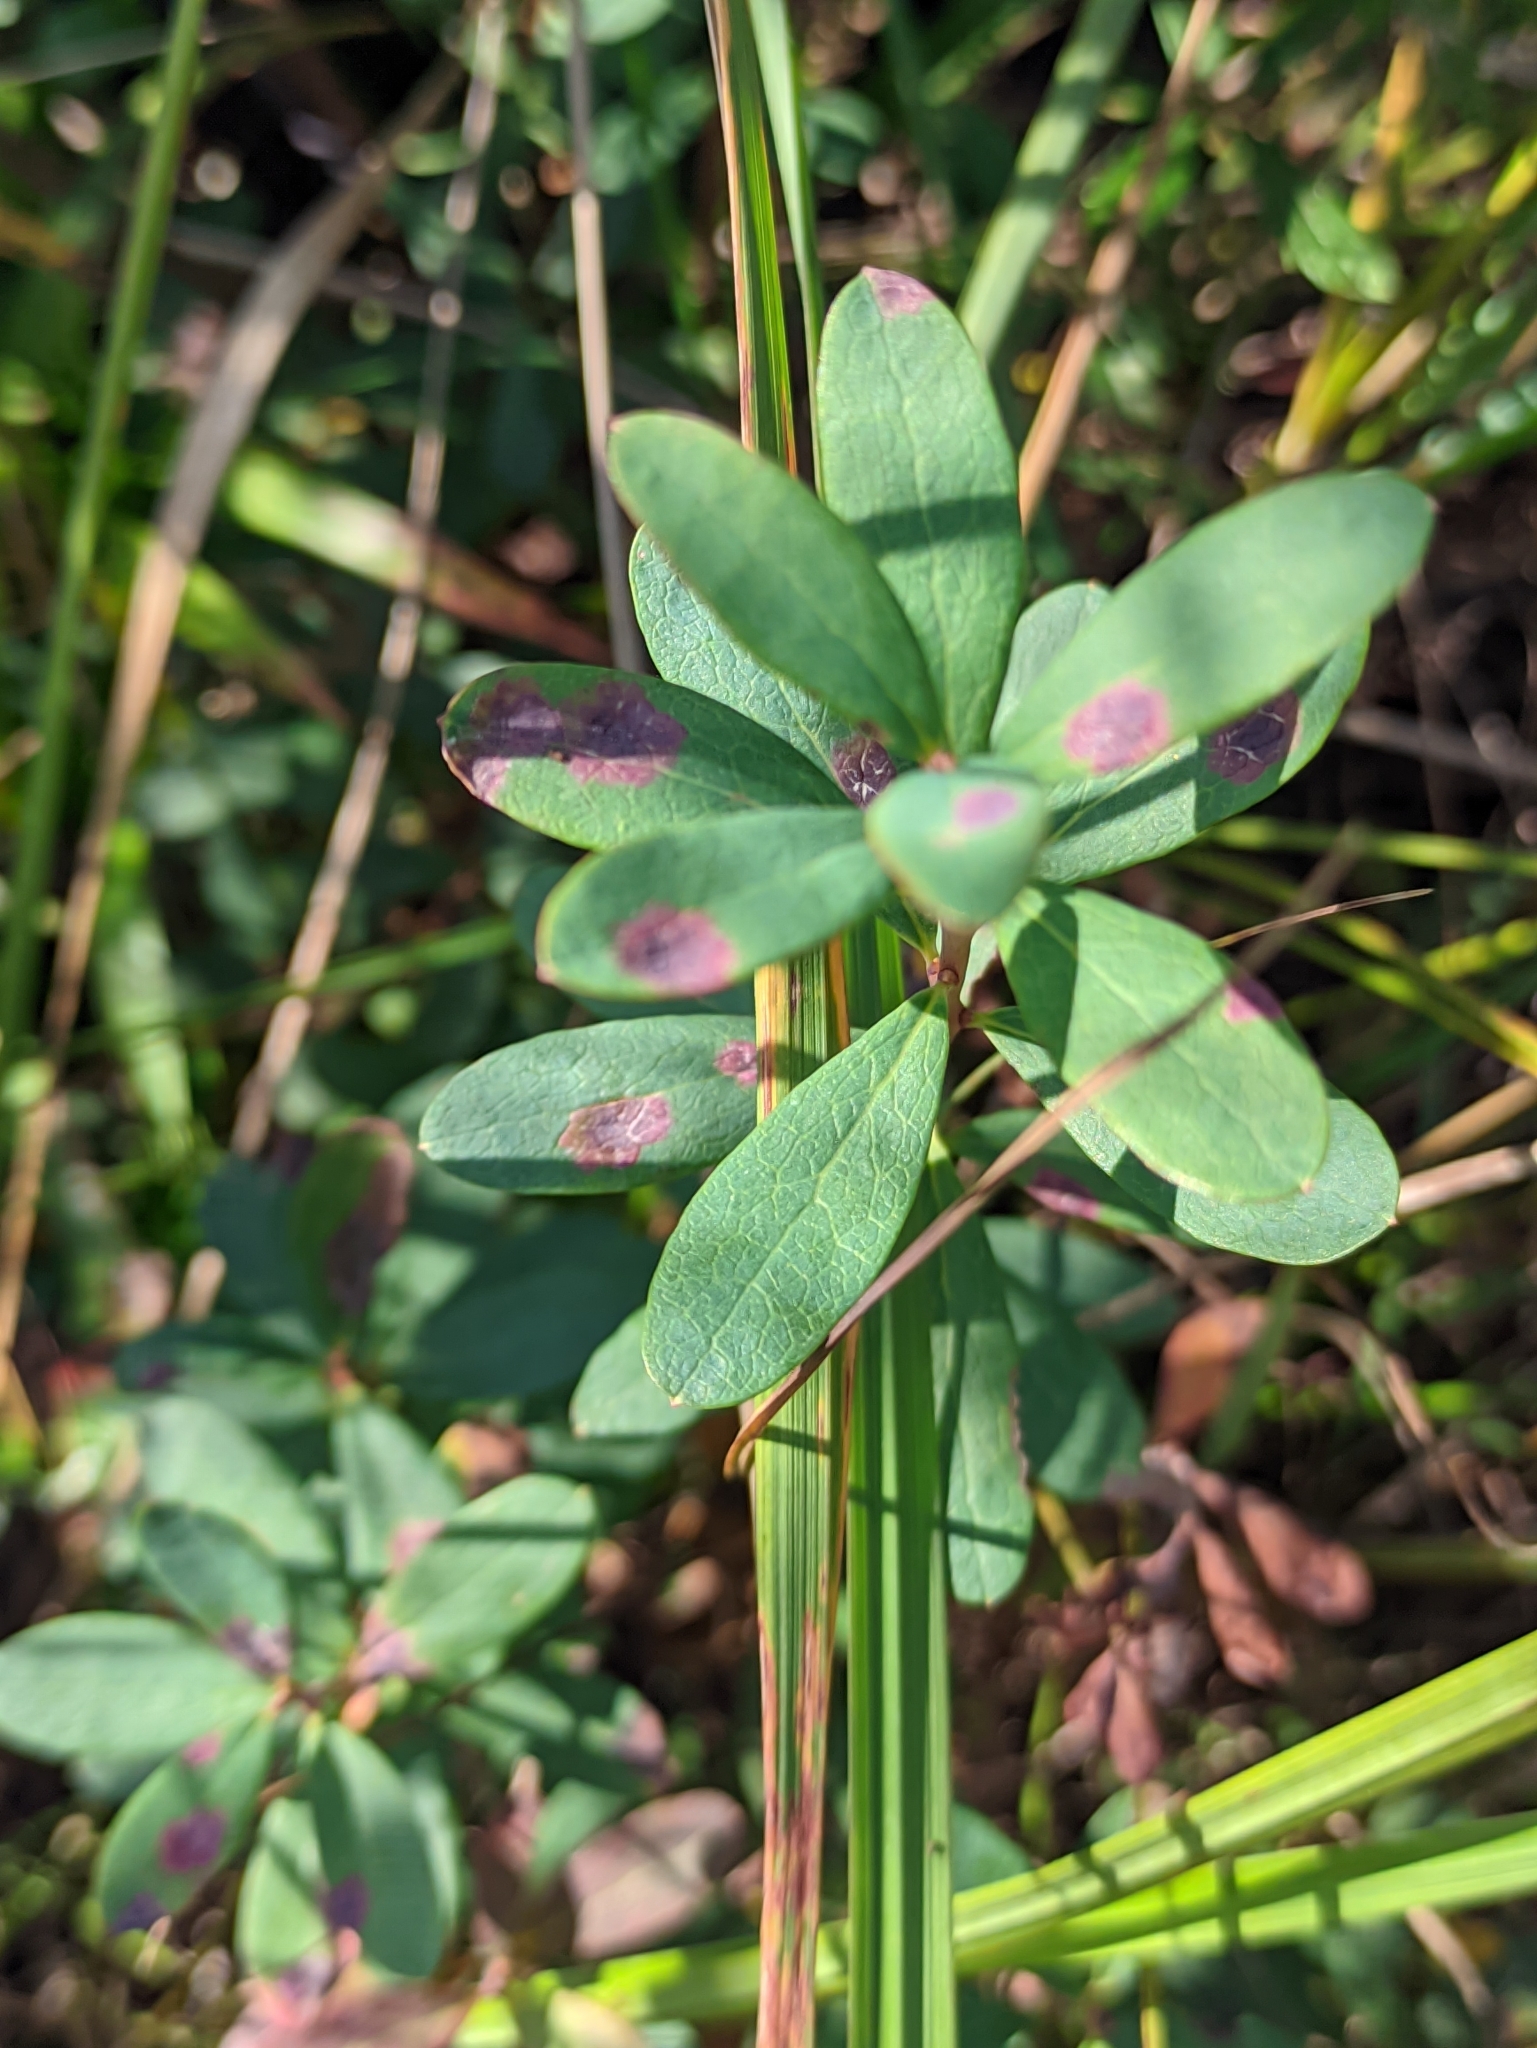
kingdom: Plantae
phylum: Tracheophyta
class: Magnoliopsida
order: Ericales
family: Ericaceae
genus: Vaccinium
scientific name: Vaccinium uliginosum
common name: Bog bilberry
